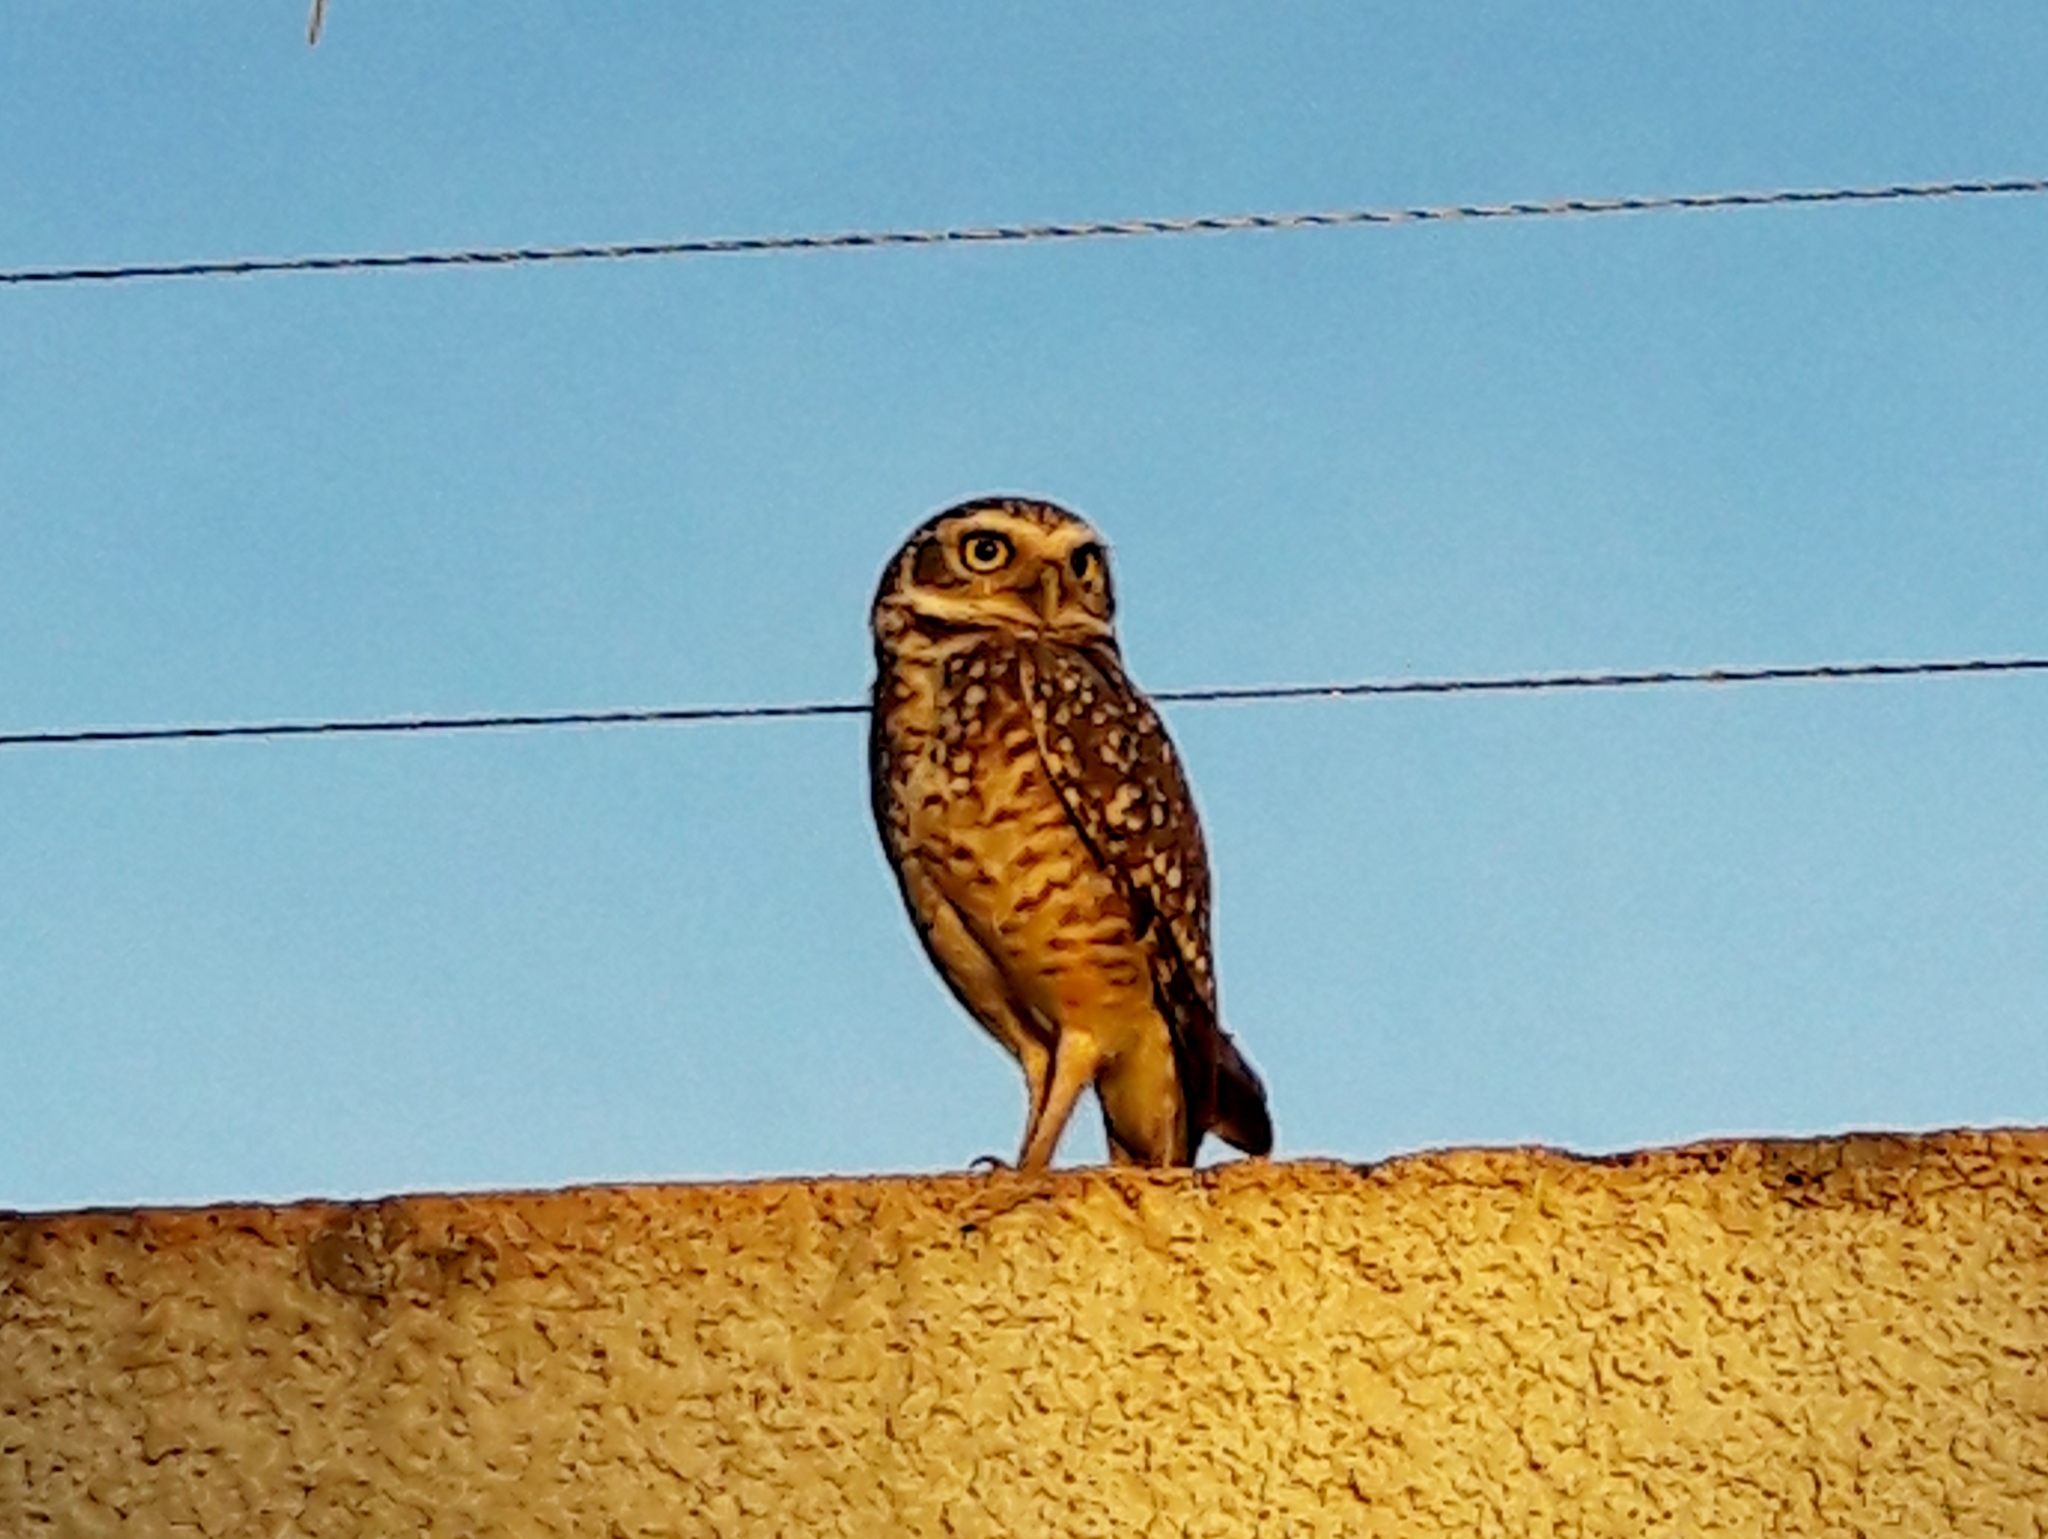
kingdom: Animalia
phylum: Chordata
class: Aves
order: Strigiformes
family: Strigidae
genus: Athene
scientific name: Athene cunicularia
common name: Burrowing owl
